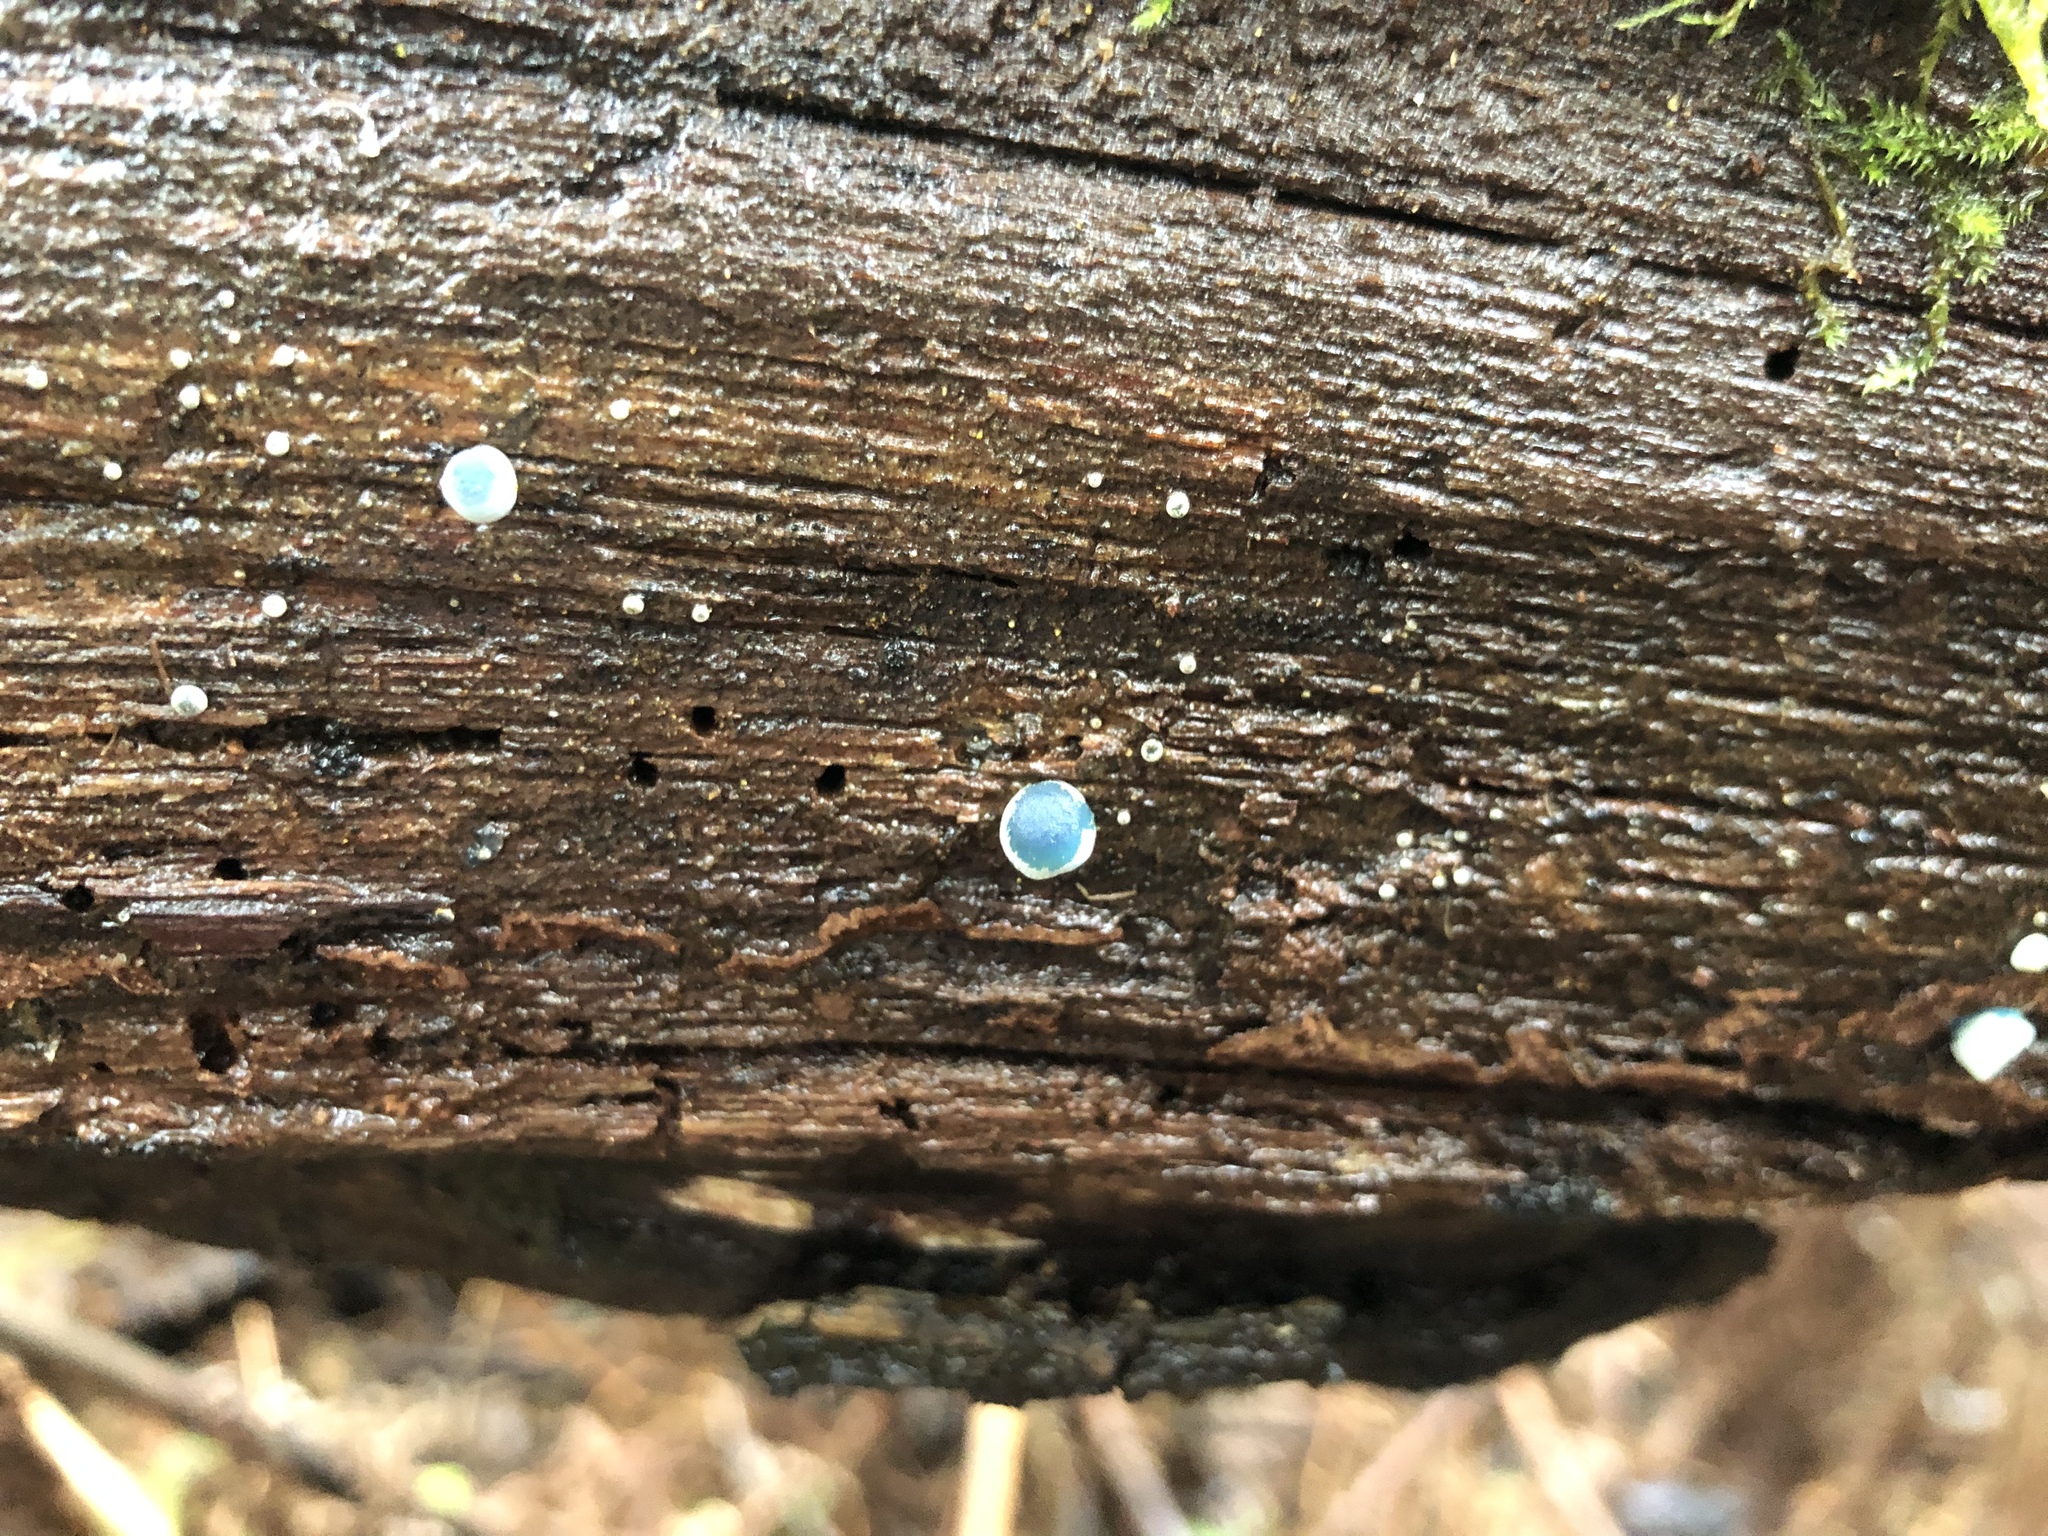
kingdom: Fungi
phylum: Basidiomycota
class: Agaricomycetes
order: Agaricales
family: Mycenaceae
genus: Mycena
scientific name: Mycena interrupta
